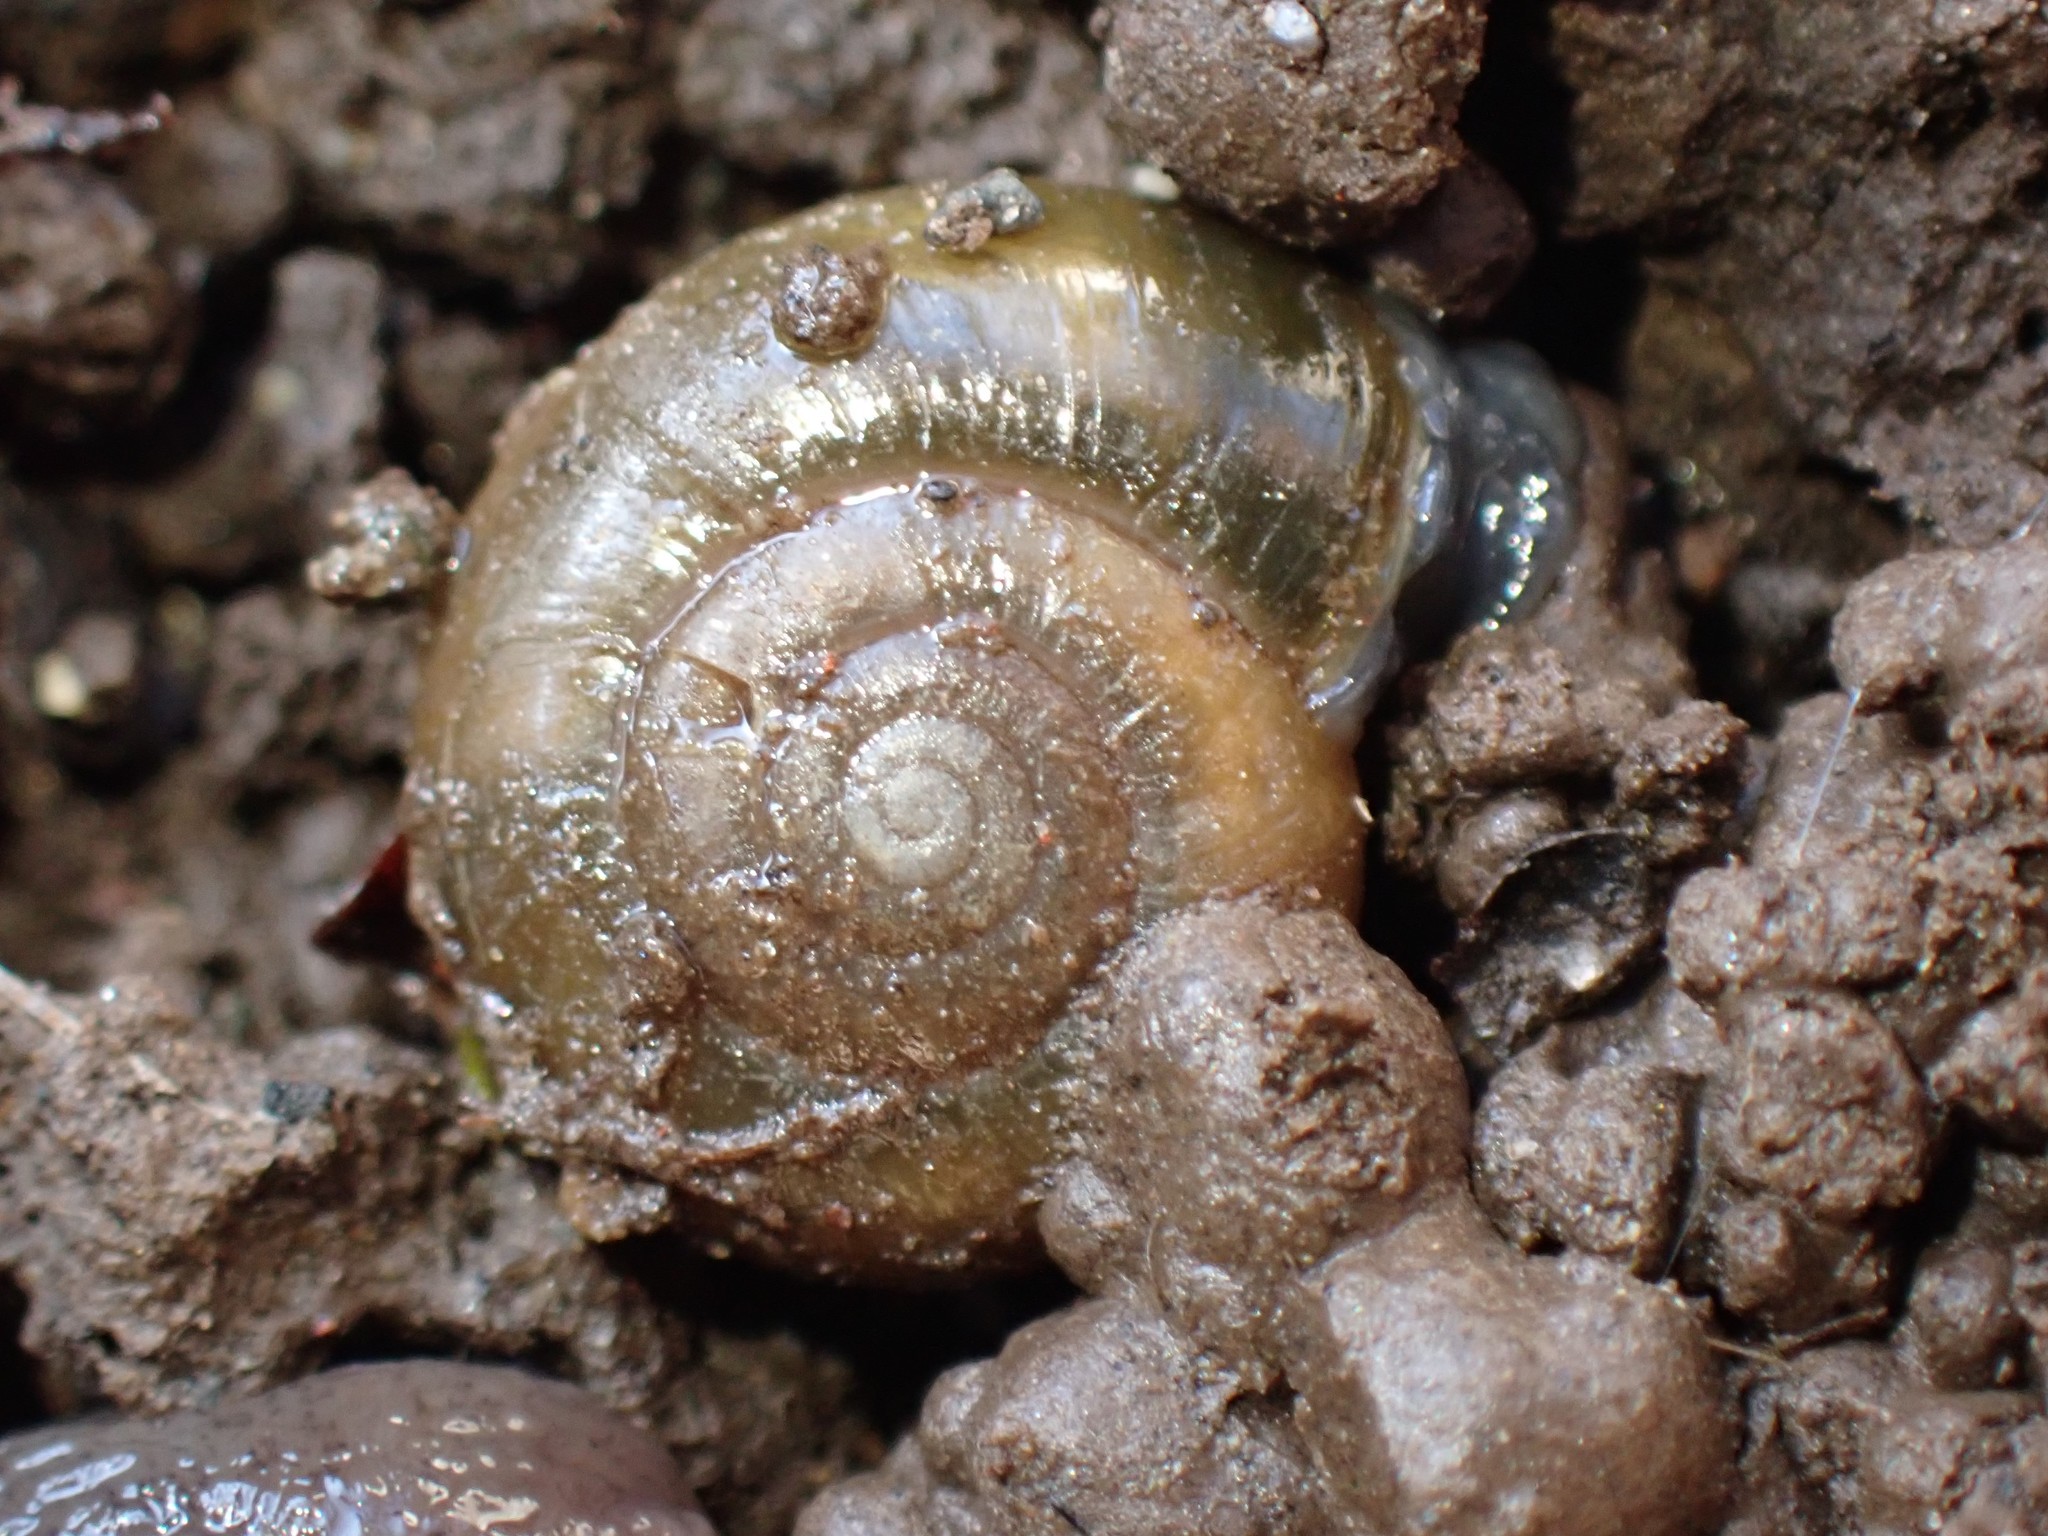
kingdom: Animalia
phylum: Mollusca
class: Gastropoda
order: Stylommatophora
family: Oxychilidae
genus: Oxychilus
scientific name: Oxychilus draparnaudi
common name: Draparnaud's glass snail
